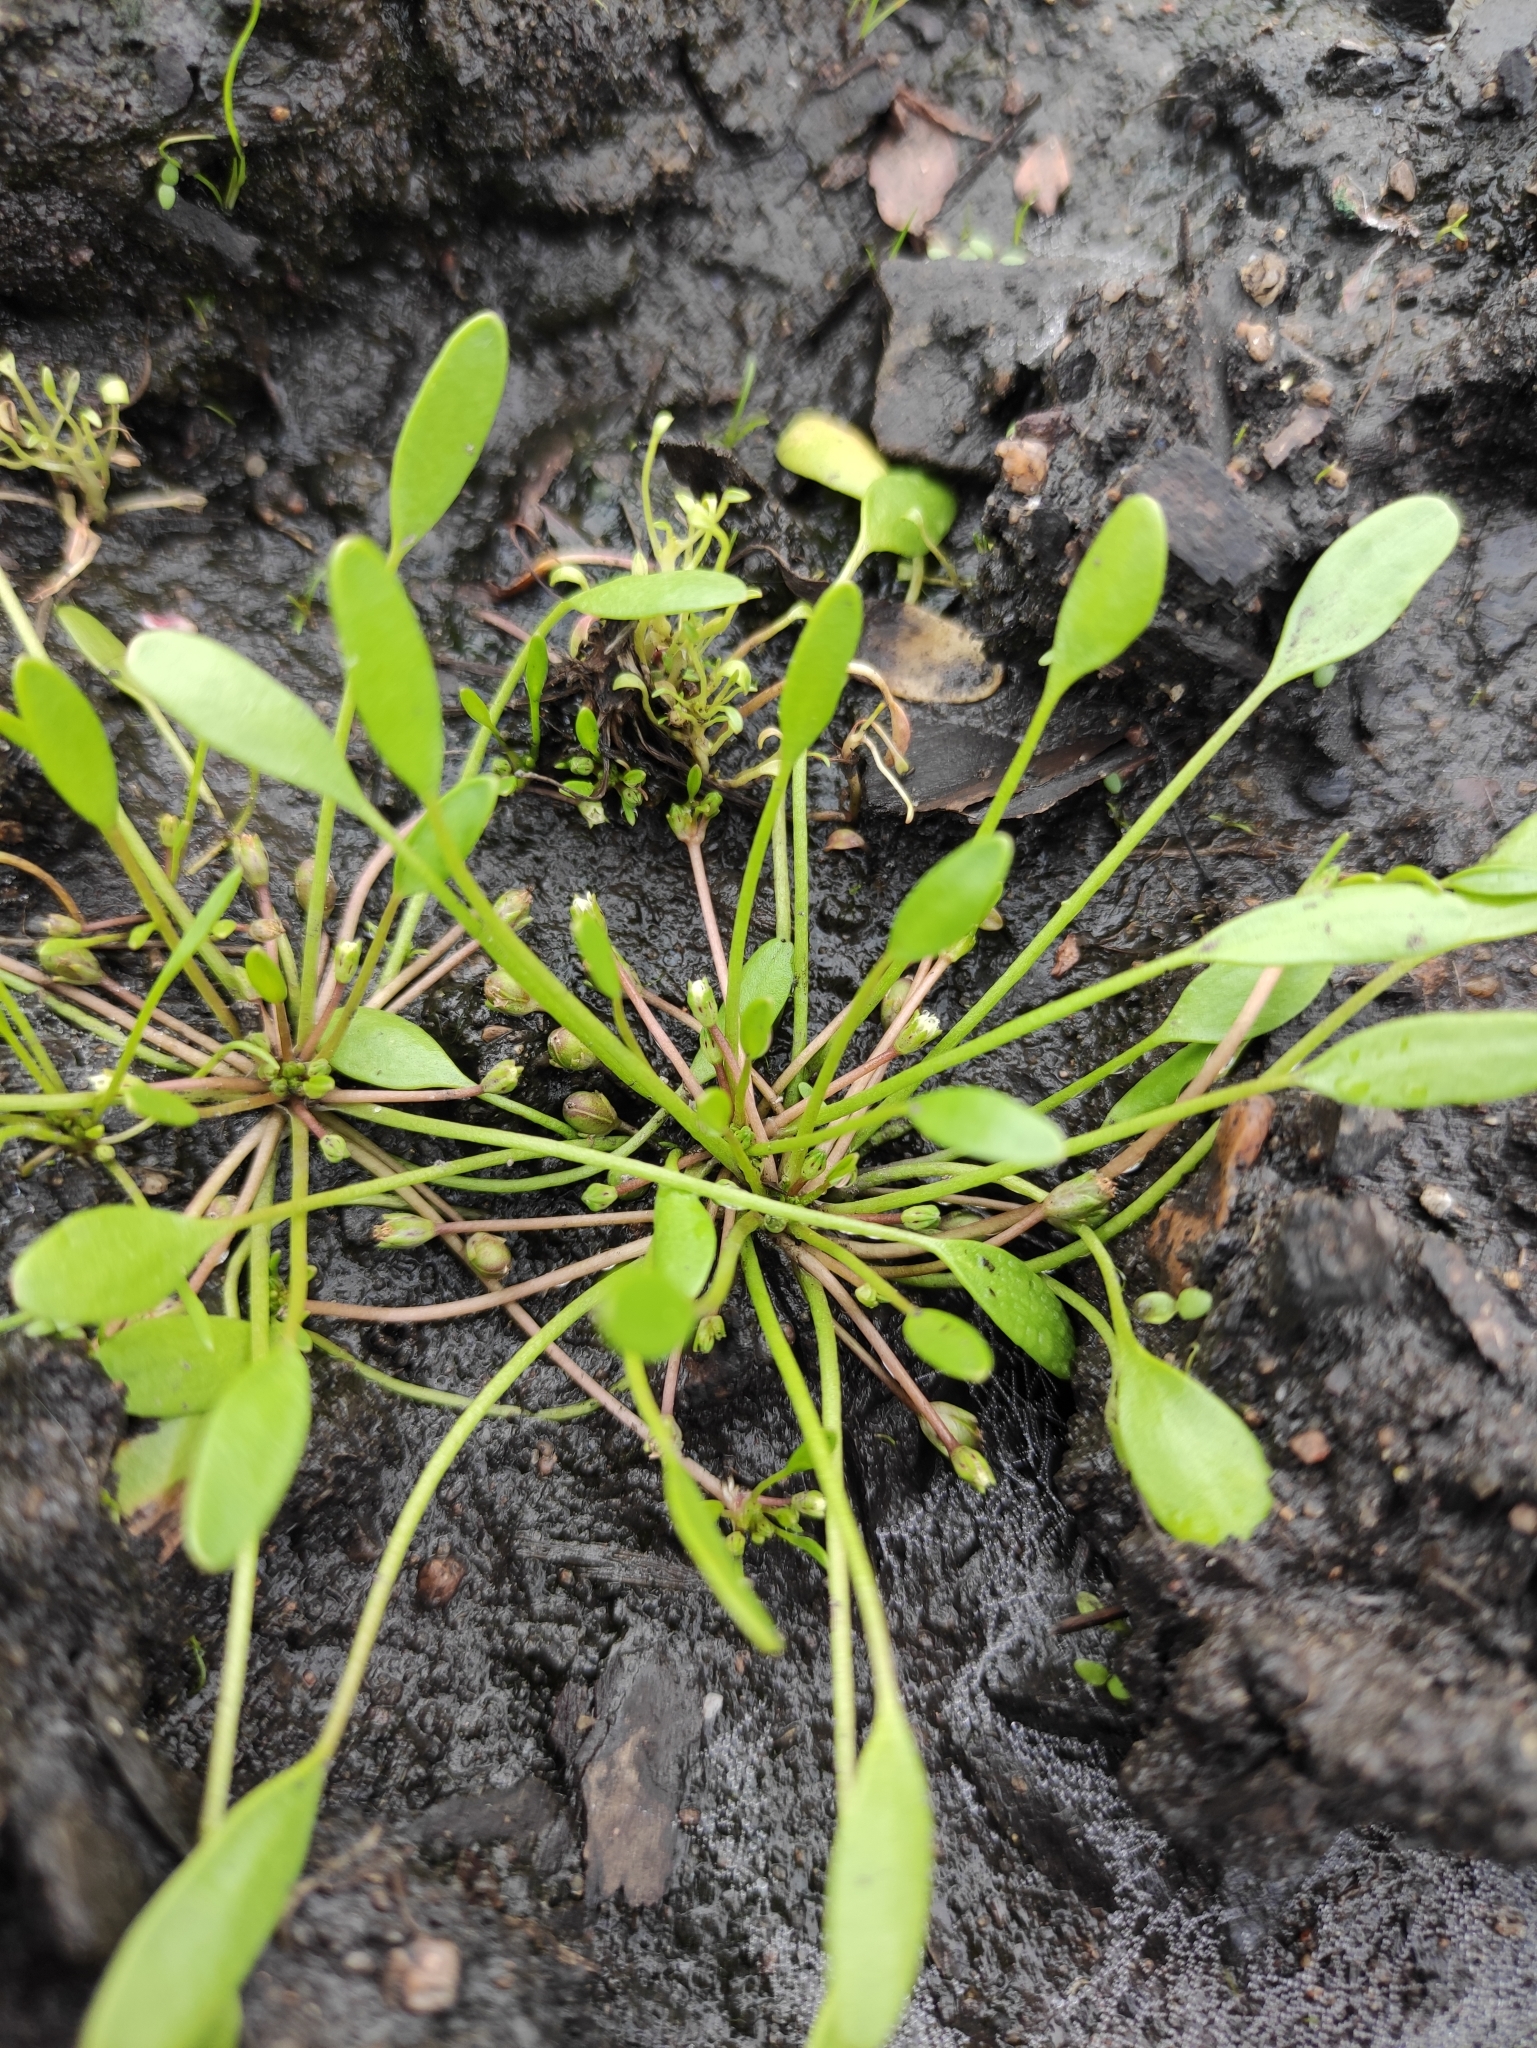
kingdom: Plantae
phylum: Tracheophyta
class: Magnoliopsida
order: Lamiales
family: Scrophulariaceae
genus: Limosella
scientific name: Limosella aquatica
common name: Mudwort
